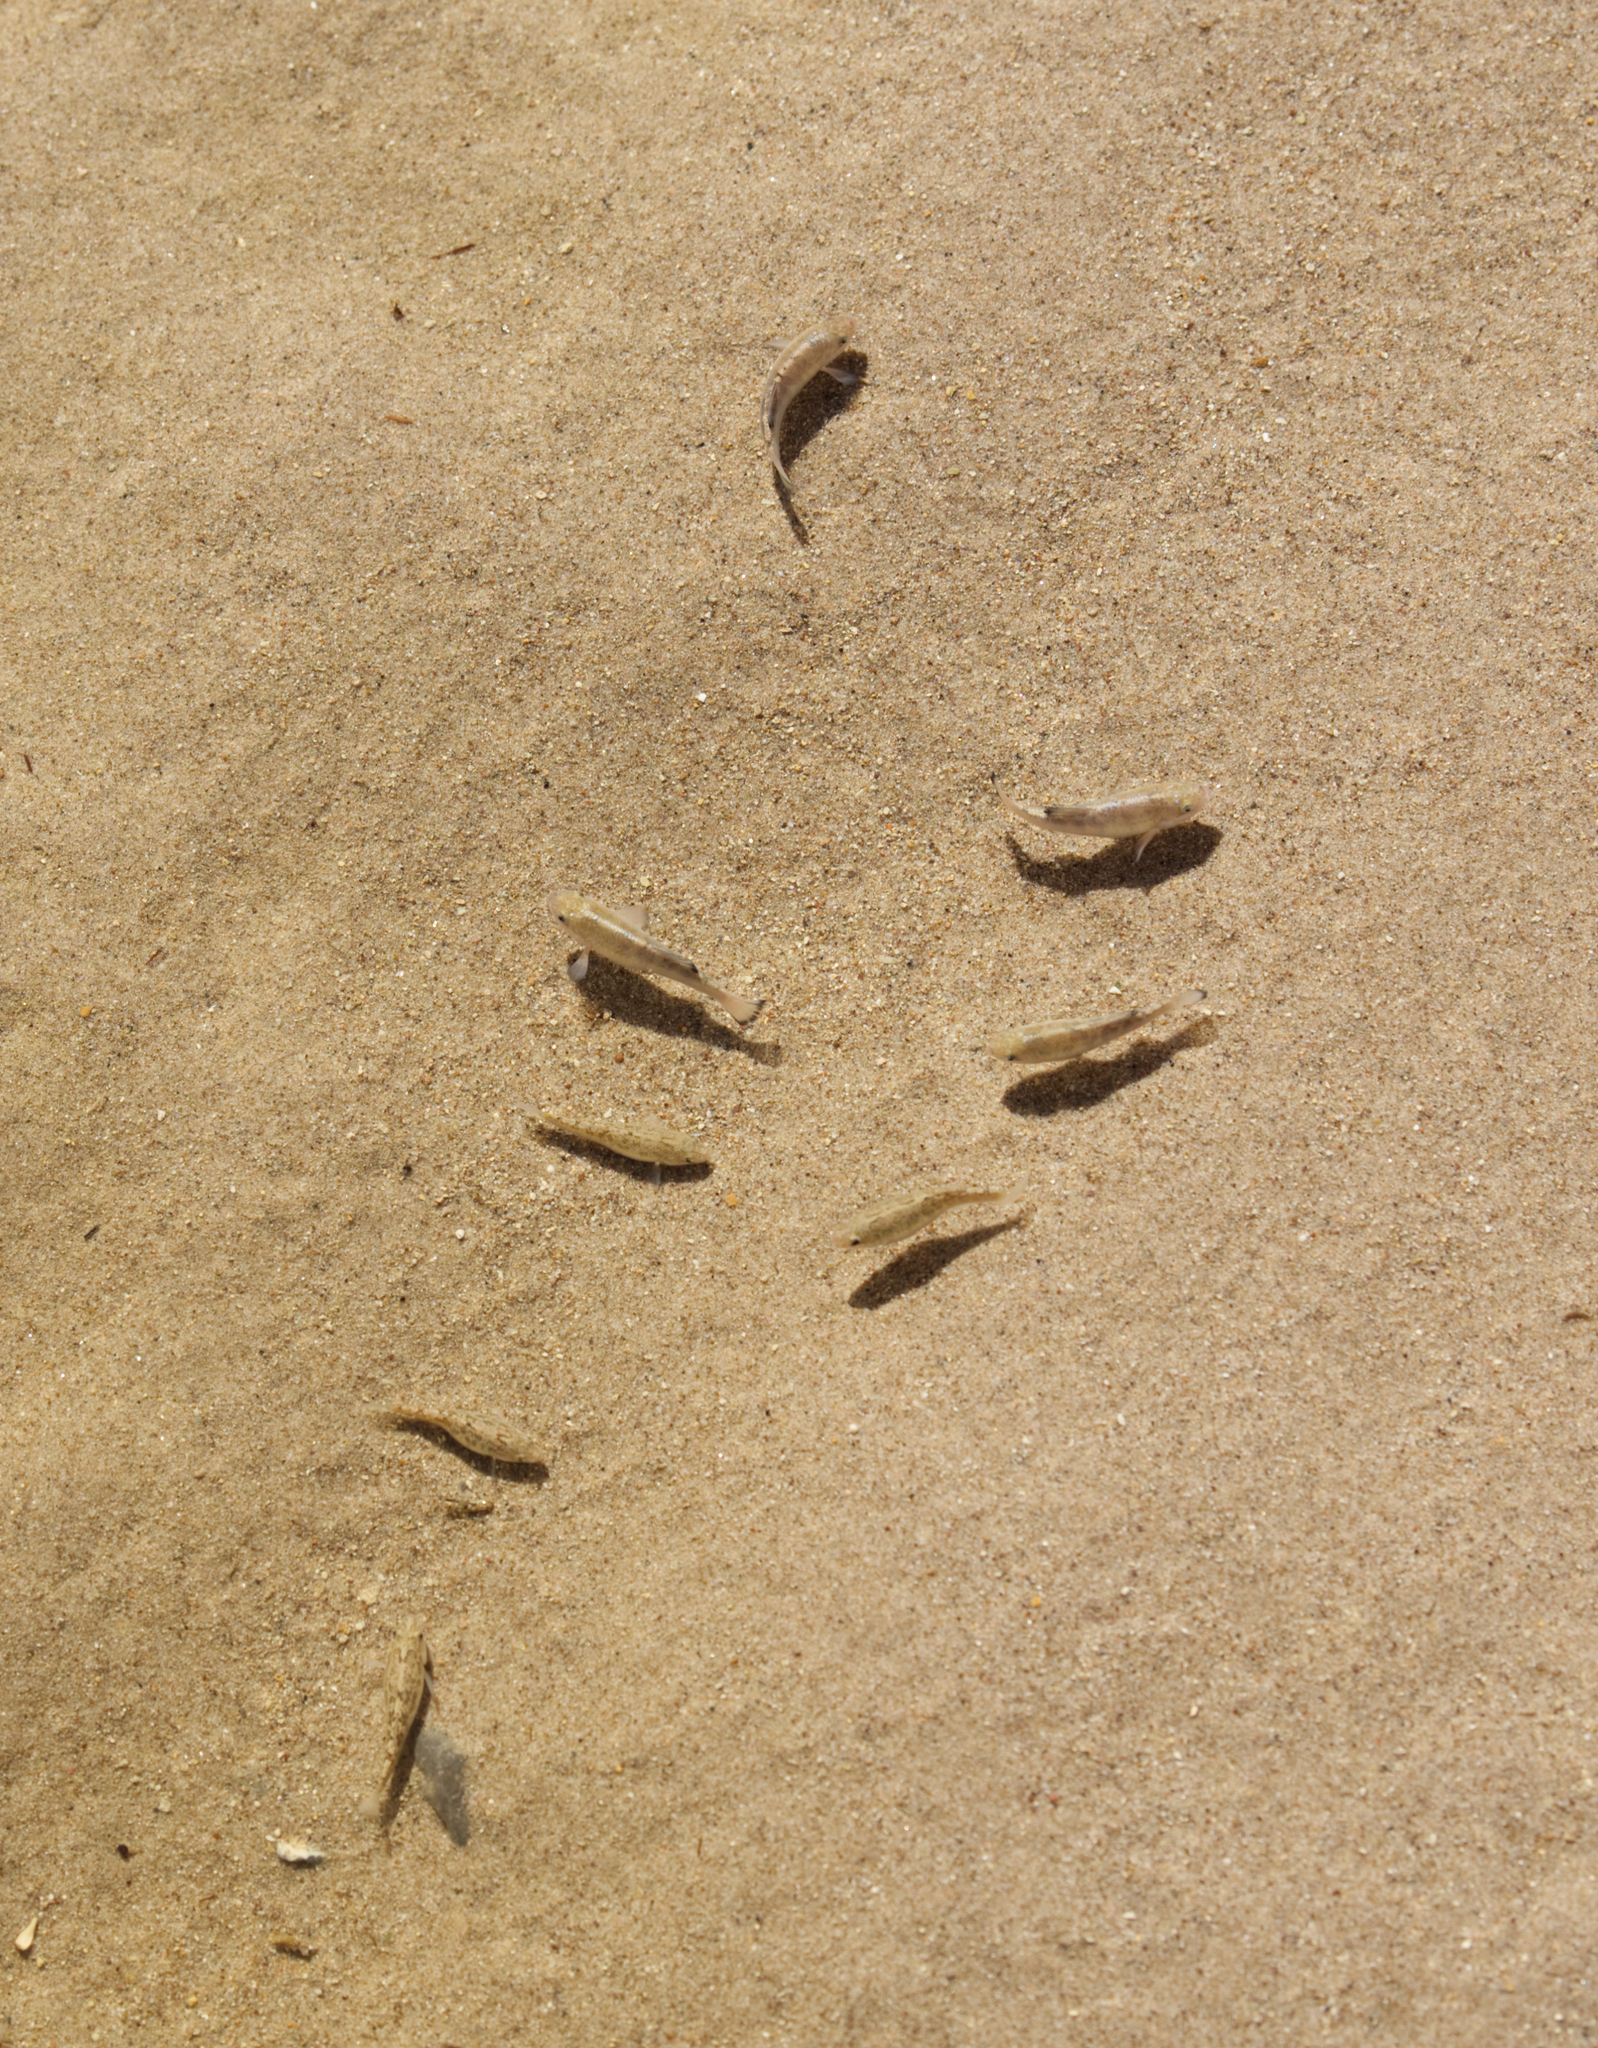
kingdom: Animalia
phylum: Chordata
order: Cyprinodontiformes
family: Cyprinodontidae
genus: Cyprinodon
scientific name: Cyprinodon salinus
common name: Cottonball marsh pupfish
